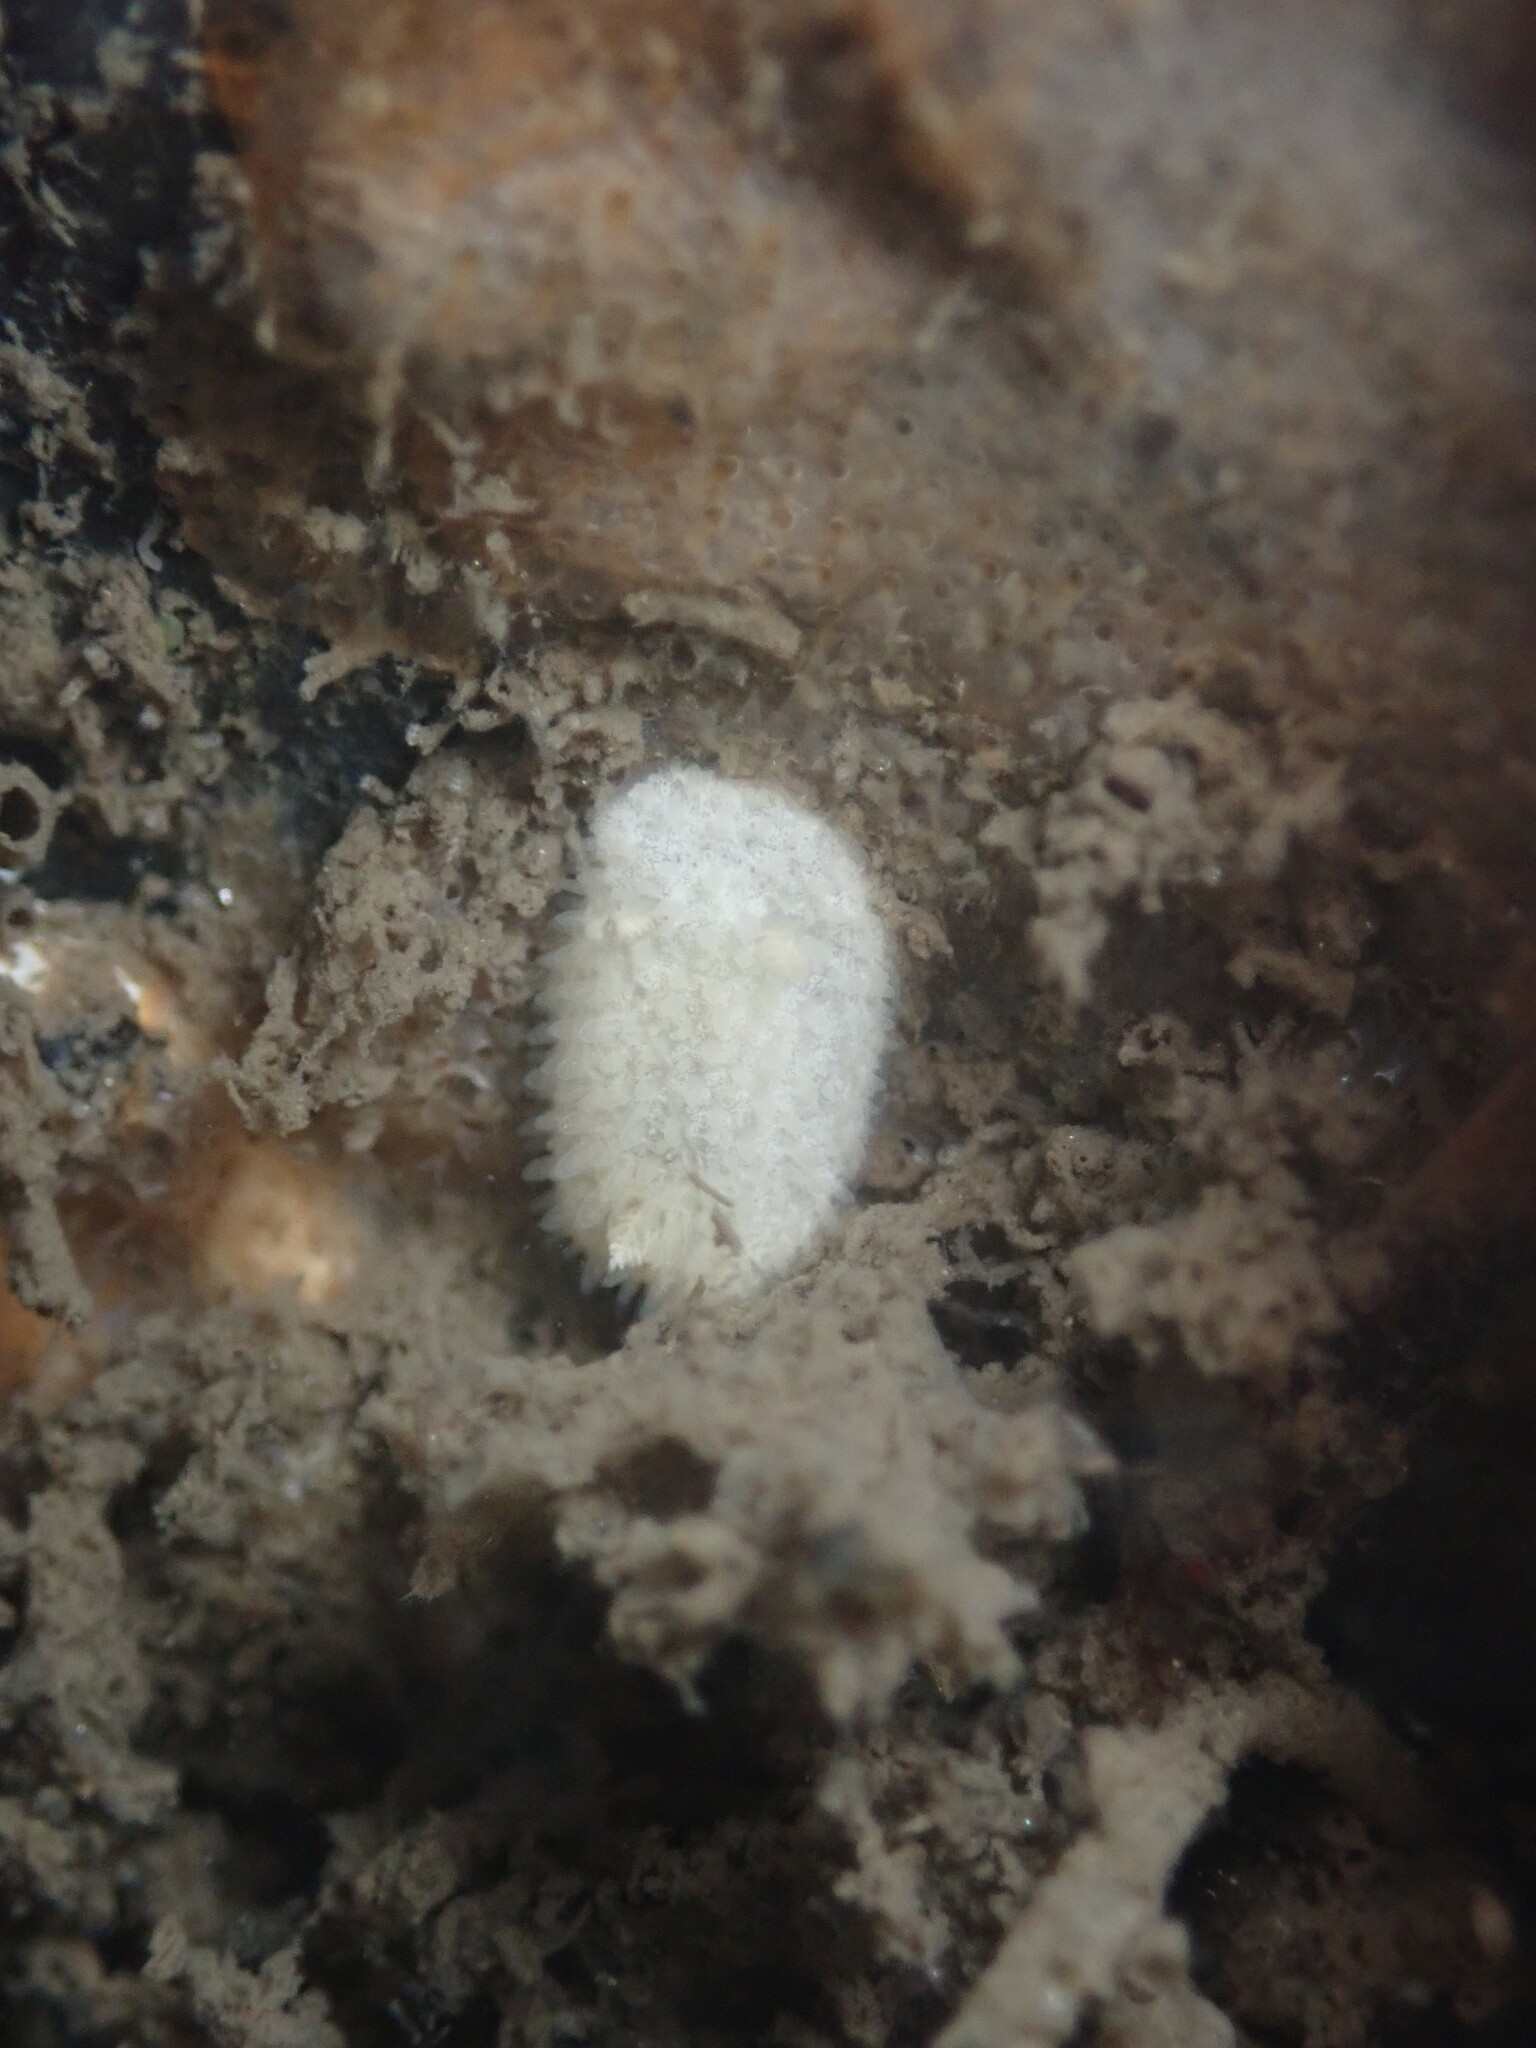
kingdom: Animalia
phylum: Mollusca
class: Gastropoda
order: Nudibranchia
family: Calycidorididae
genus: Diaphorodoris
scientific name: Diaphorodoris lirulatocauda
